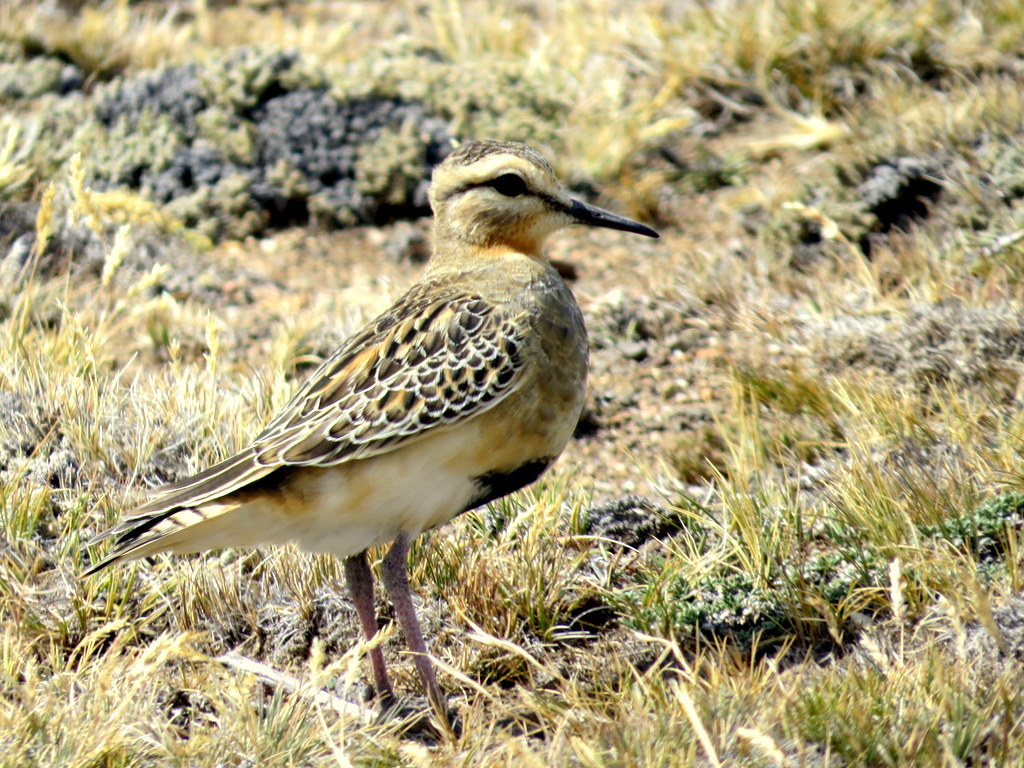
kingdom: Animalia
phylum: Chordata
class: Aves
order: Charadriiformes
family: Charadriidae
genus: Oreopholus
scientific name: Oreopholus ruficollis
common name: Tawny-throated dotterel
